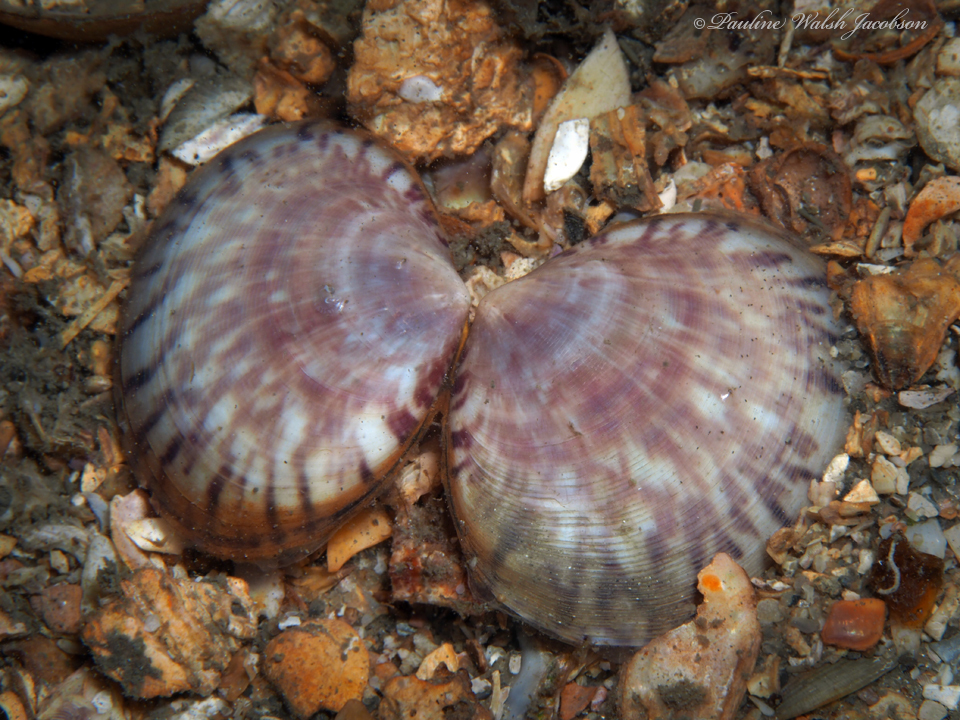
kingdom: Animalia
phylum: Mollusca
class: Bivalvia
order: Cardiida
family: Semelidae
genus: Semele
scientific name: Semele purpurascens
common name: Purplish semele
